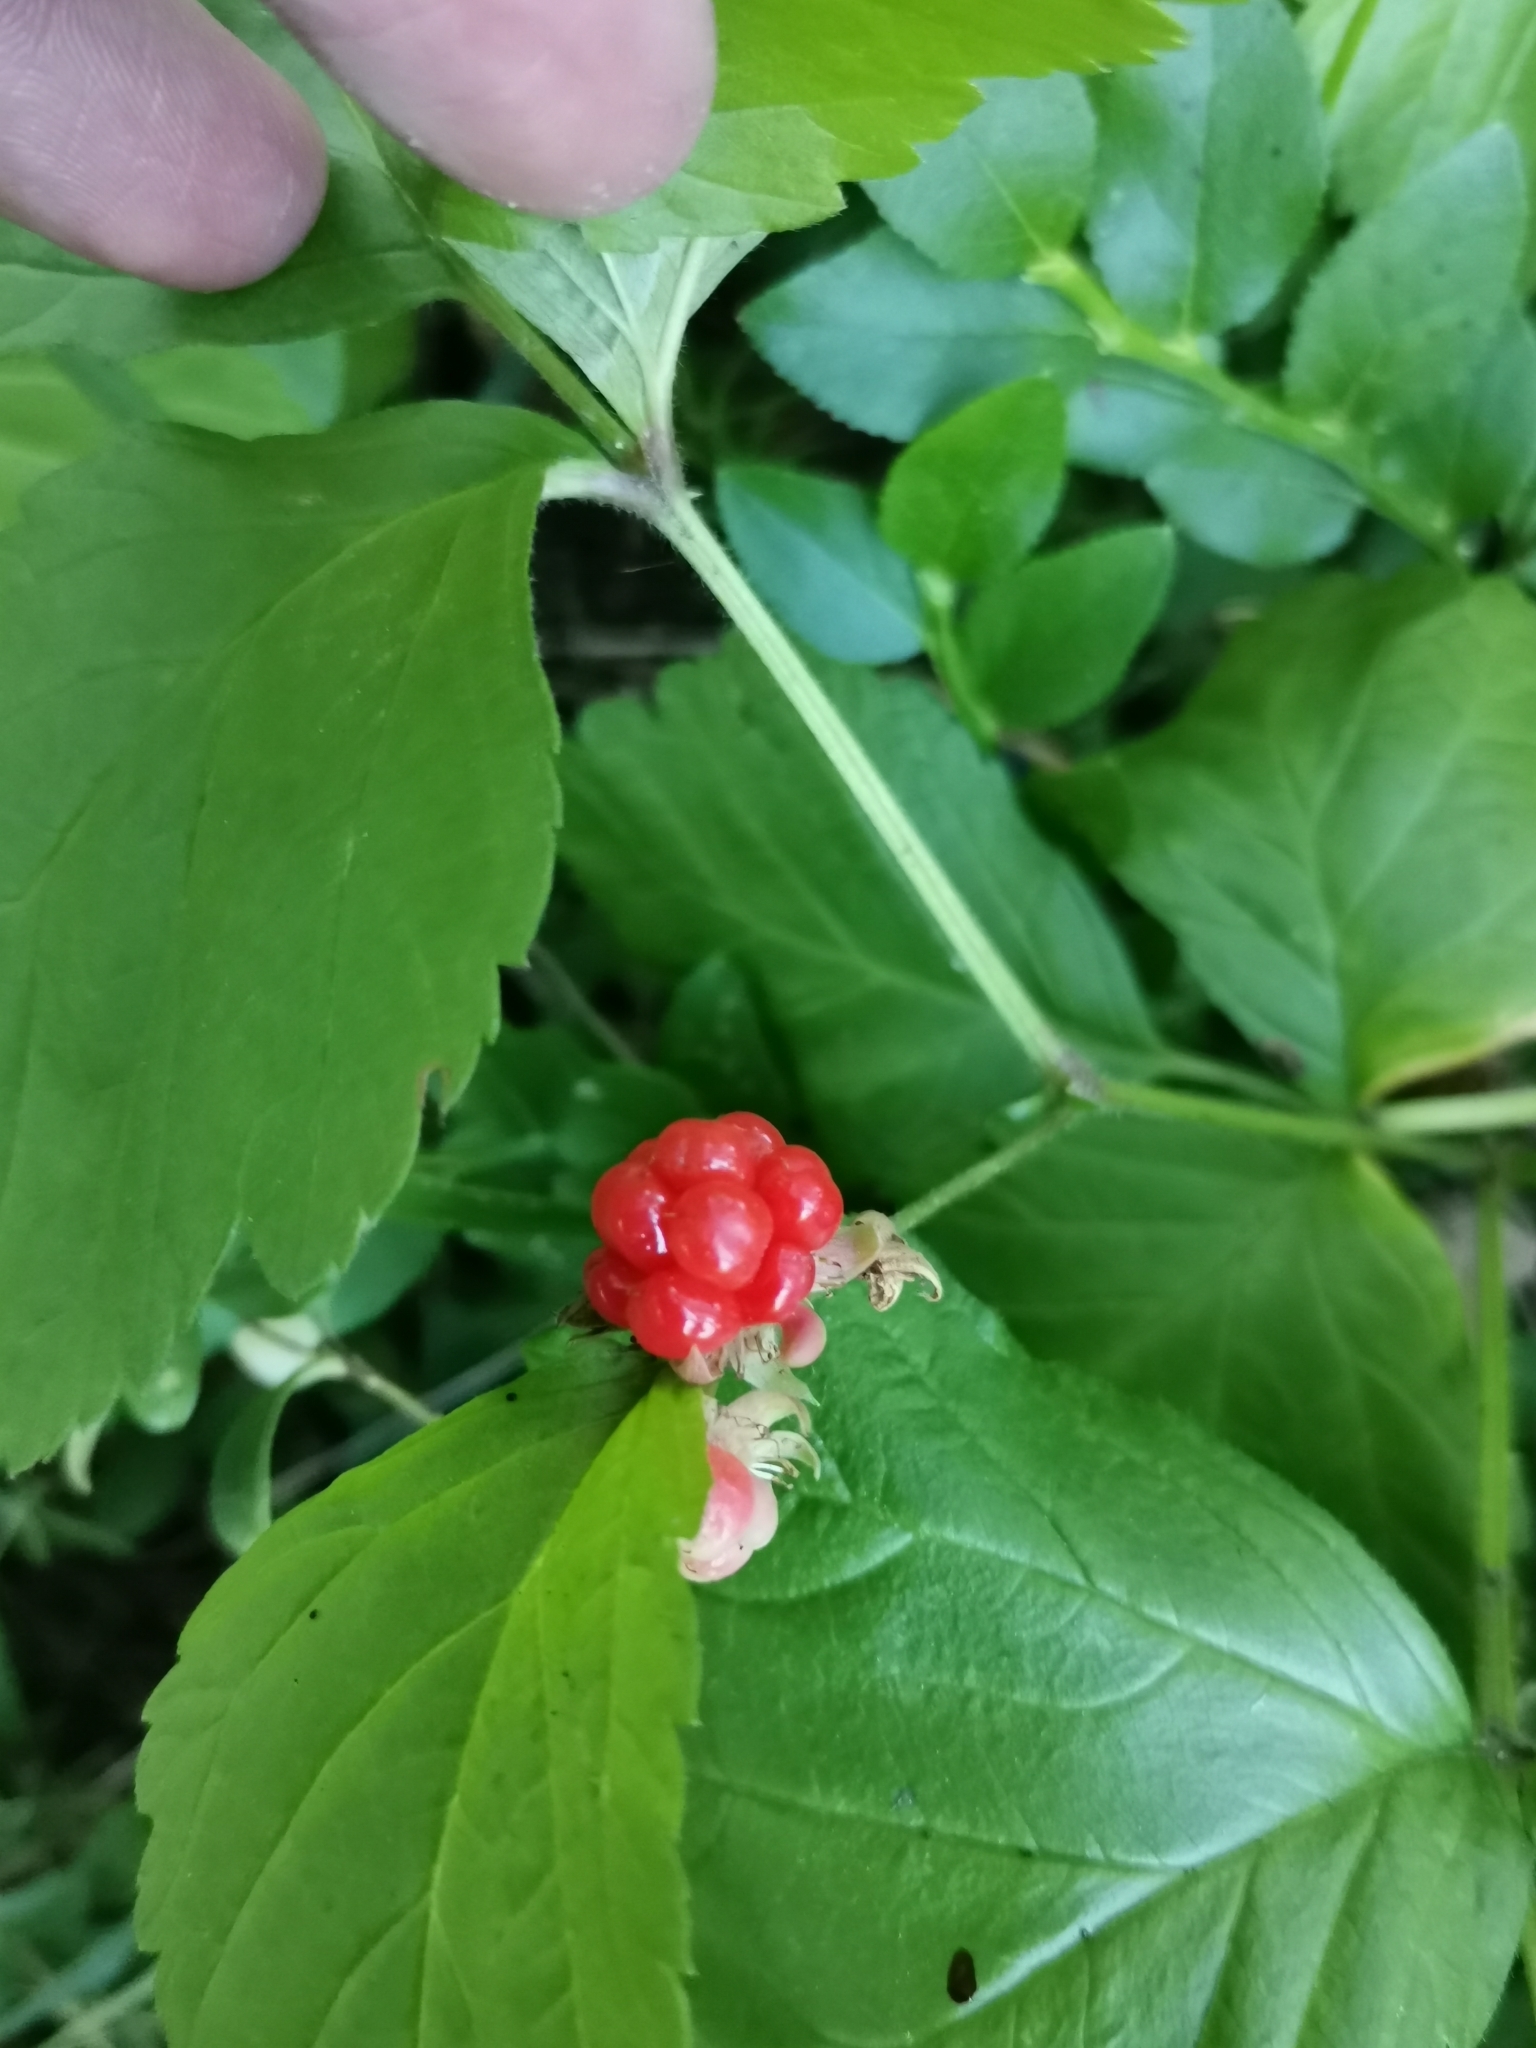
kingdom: Plantae
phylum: Tracheophyta
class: Magnoliopsida
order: Rosales
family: Rosaceae
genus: Rubus
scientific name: Rubus saxatilis
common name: Stone bramble
